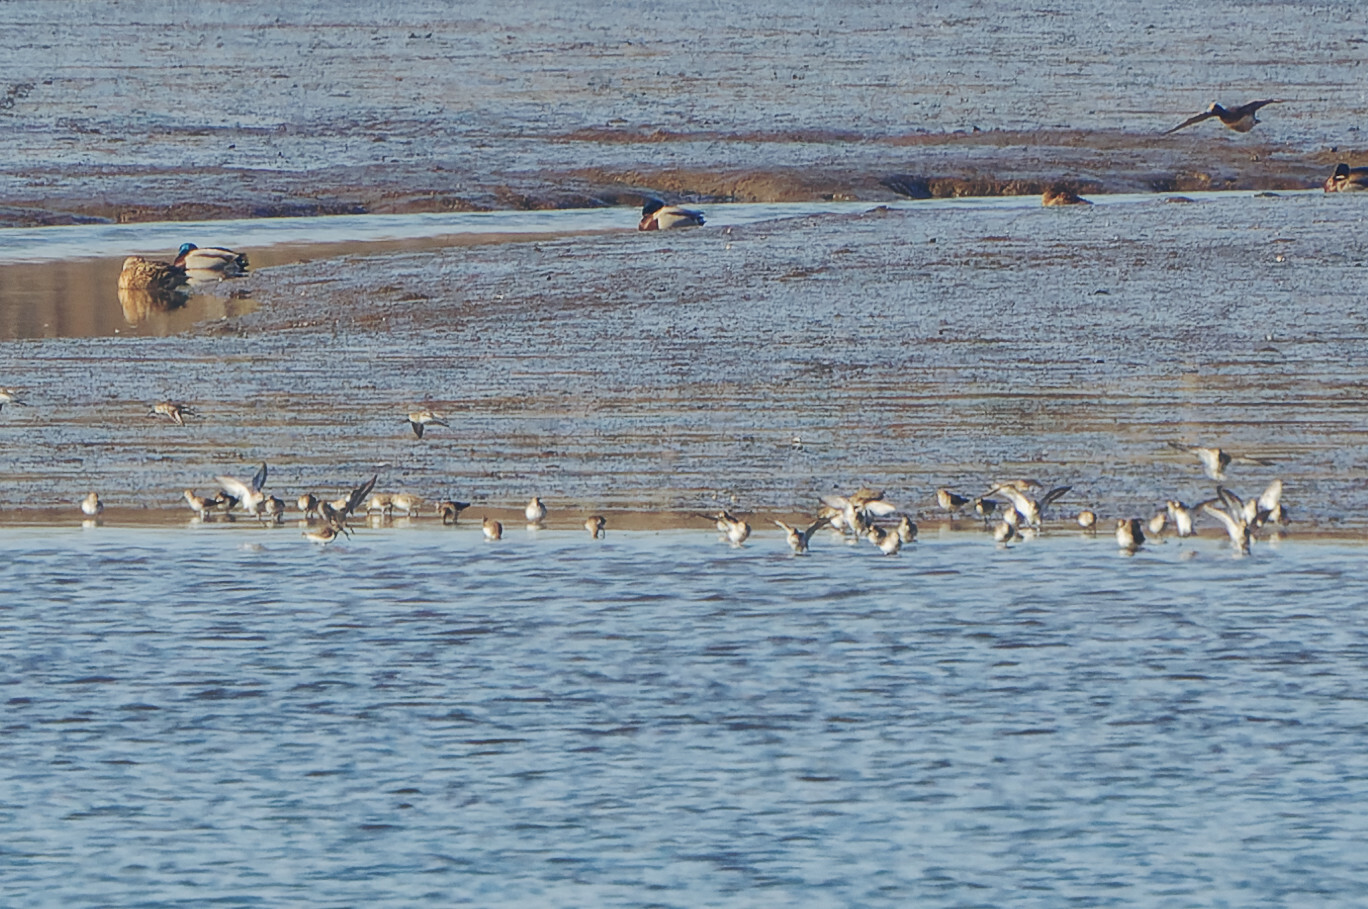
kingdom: Animalia
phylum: Chordata
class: Aves
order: Charadriiformes
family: Scolopacidae
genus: Calidris
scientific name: Calidris alpina
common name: Dunlin
